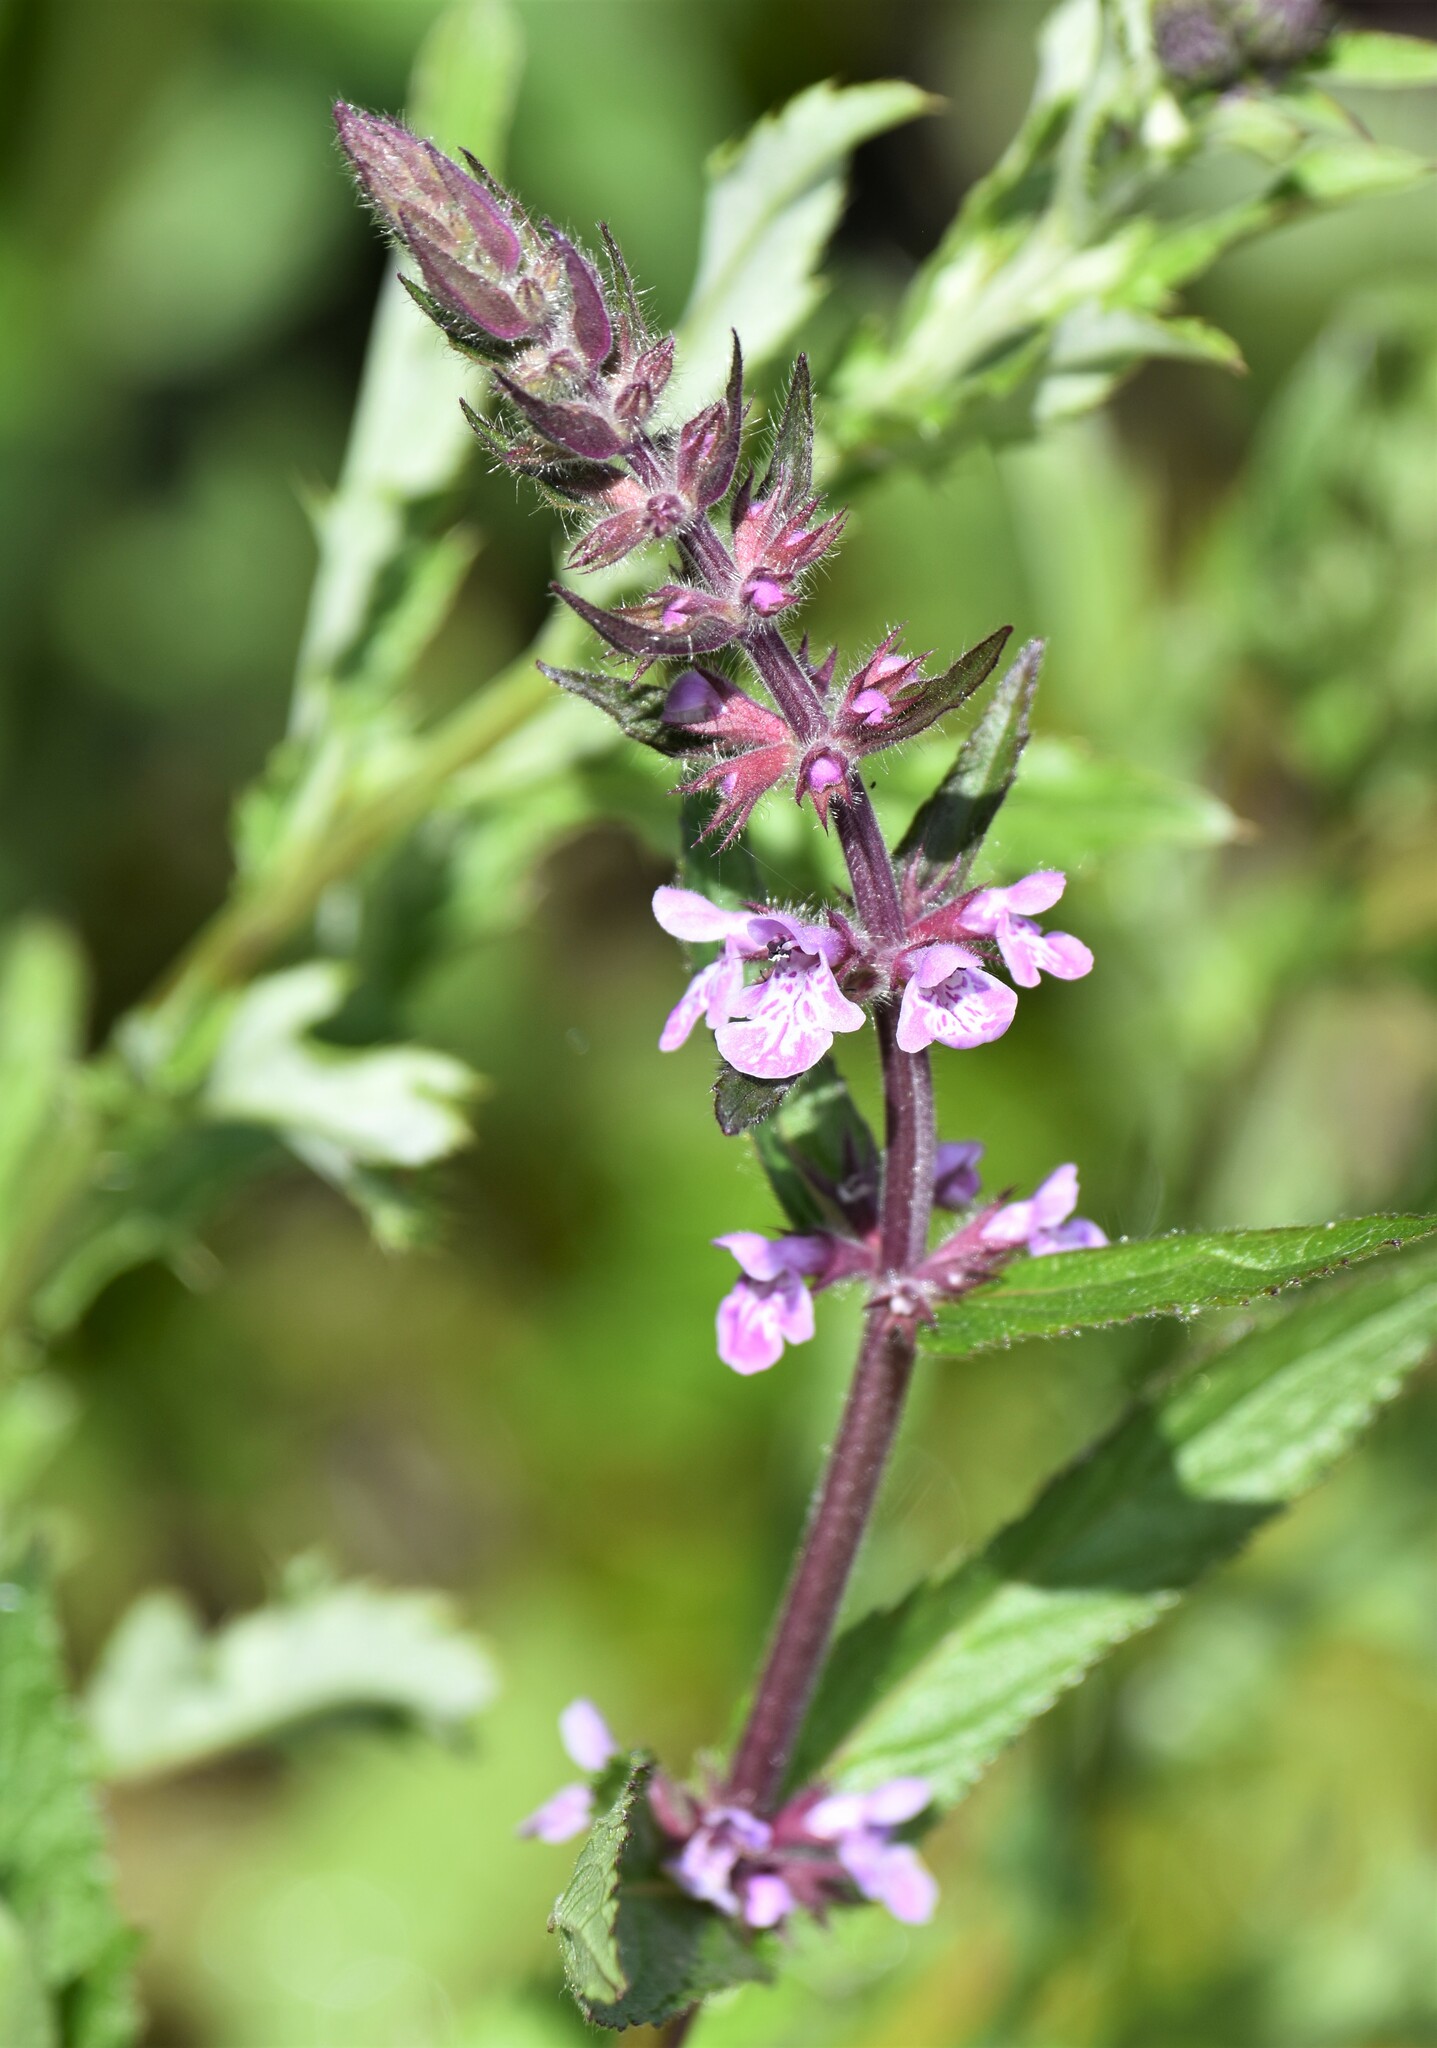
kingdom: Plantae
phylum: Tracheophyta
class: Magnoliopsida
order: Lamiales
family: Lamiaceae
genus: Stachys
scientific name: Stachys pilosa
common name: Hairy hedge-nettle
